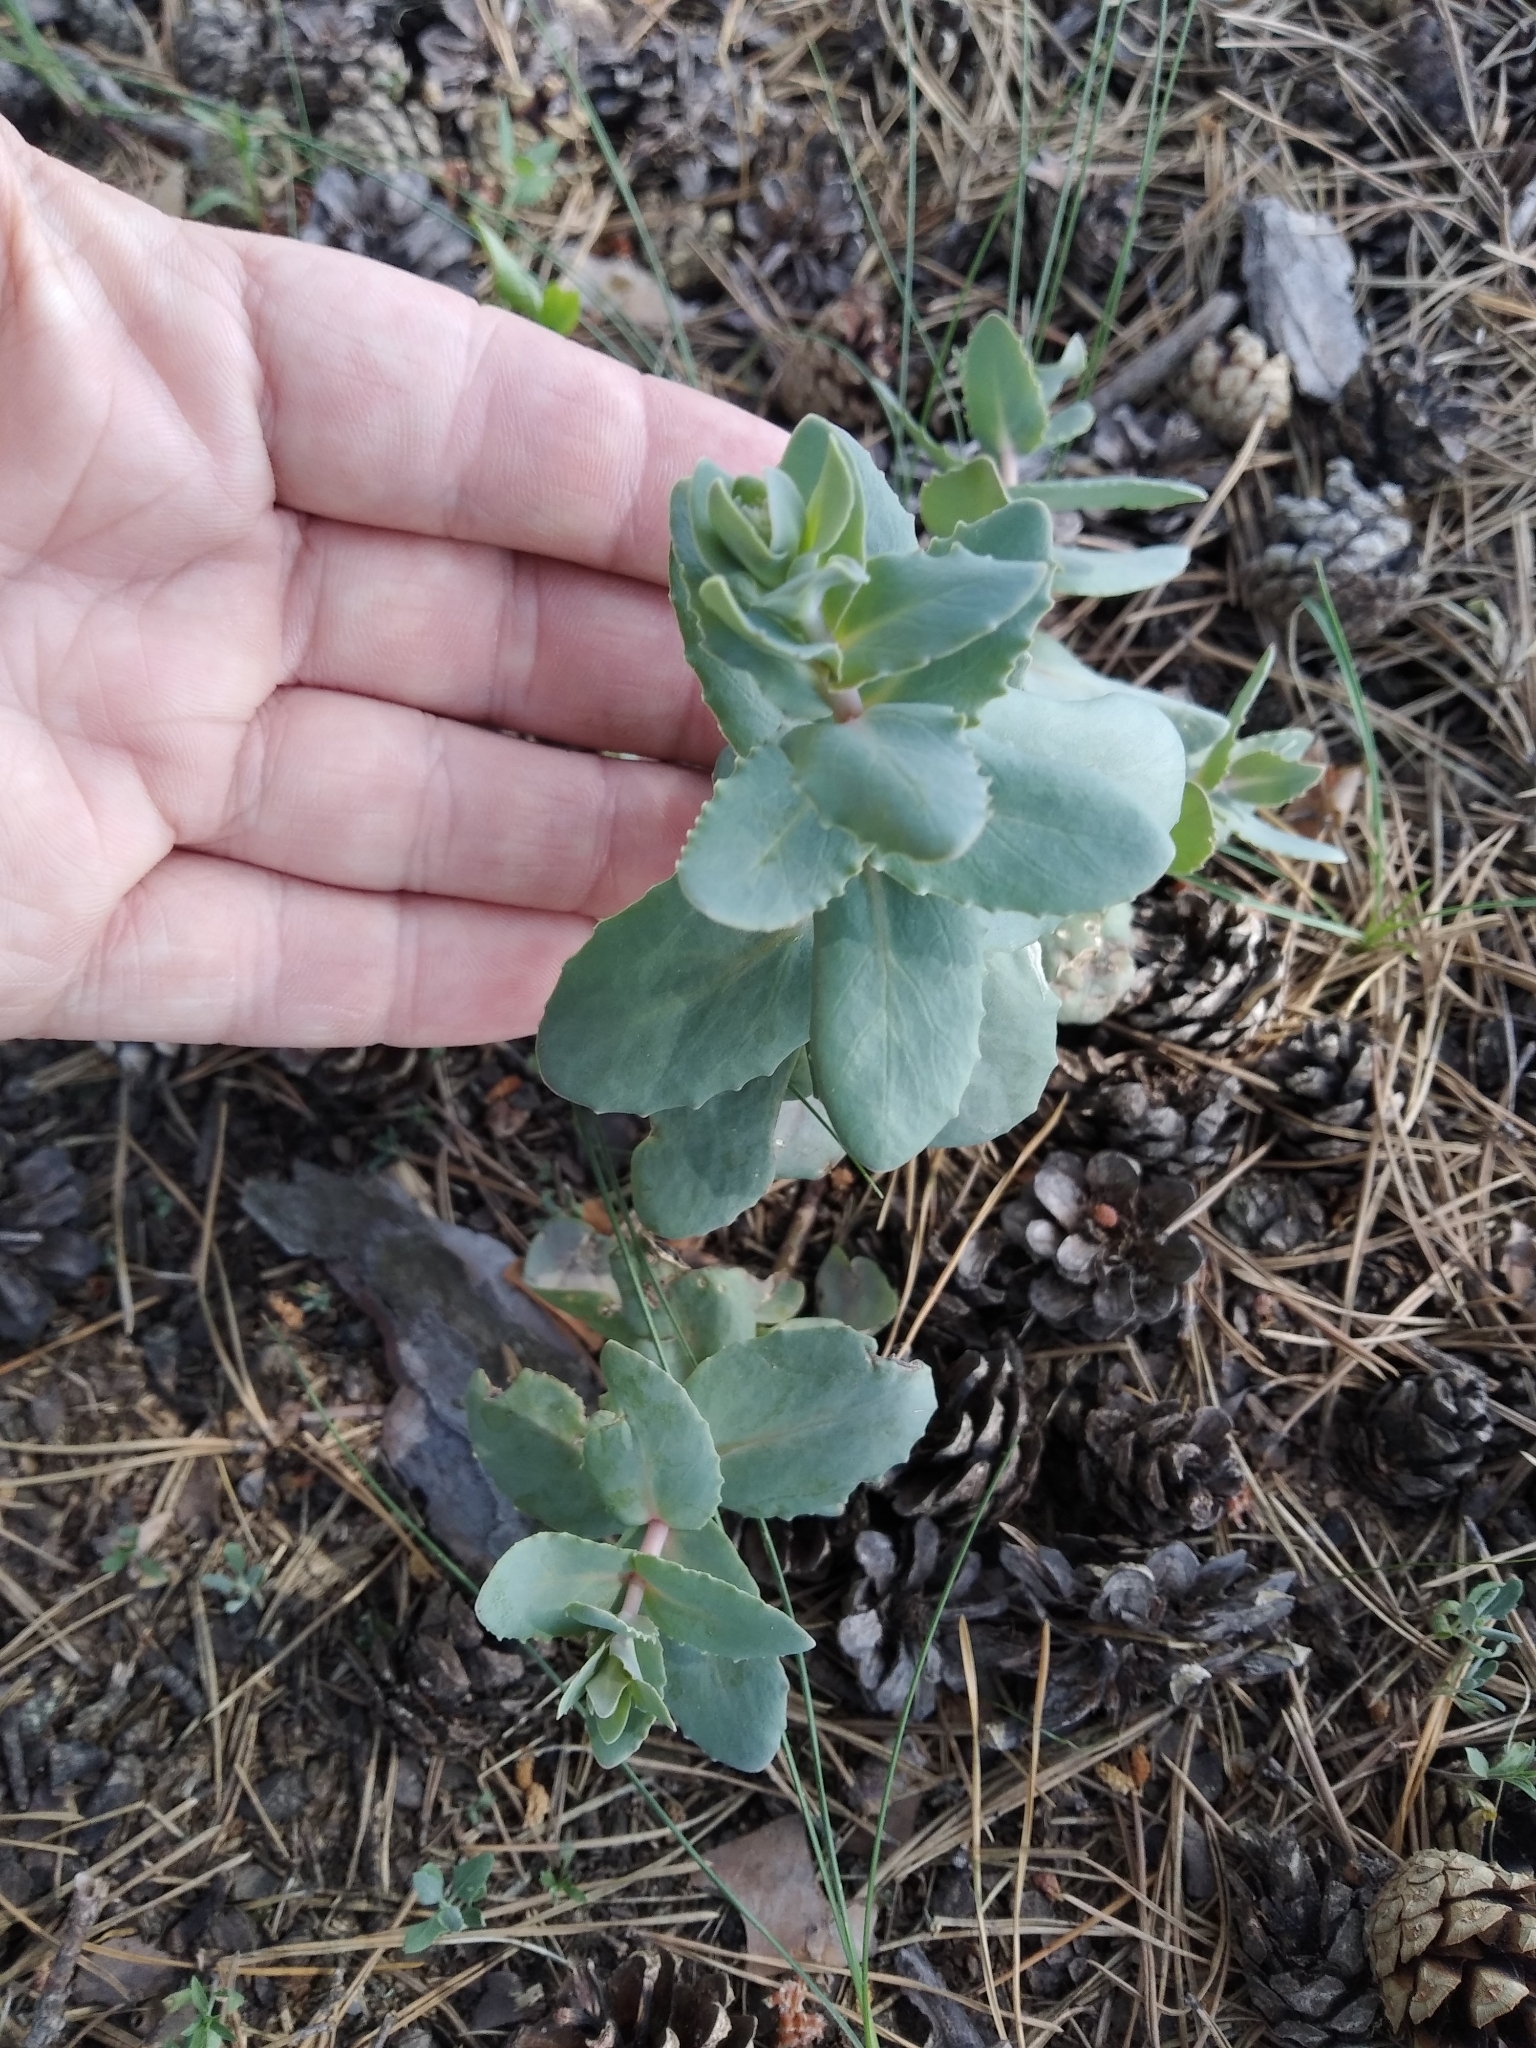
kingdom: Plantae
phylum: Tracheophyta
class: Magnoliopsida
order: Saxifragales
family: Crassulaceae
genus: Hylotelephium
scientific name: Hylotelephium maximum
